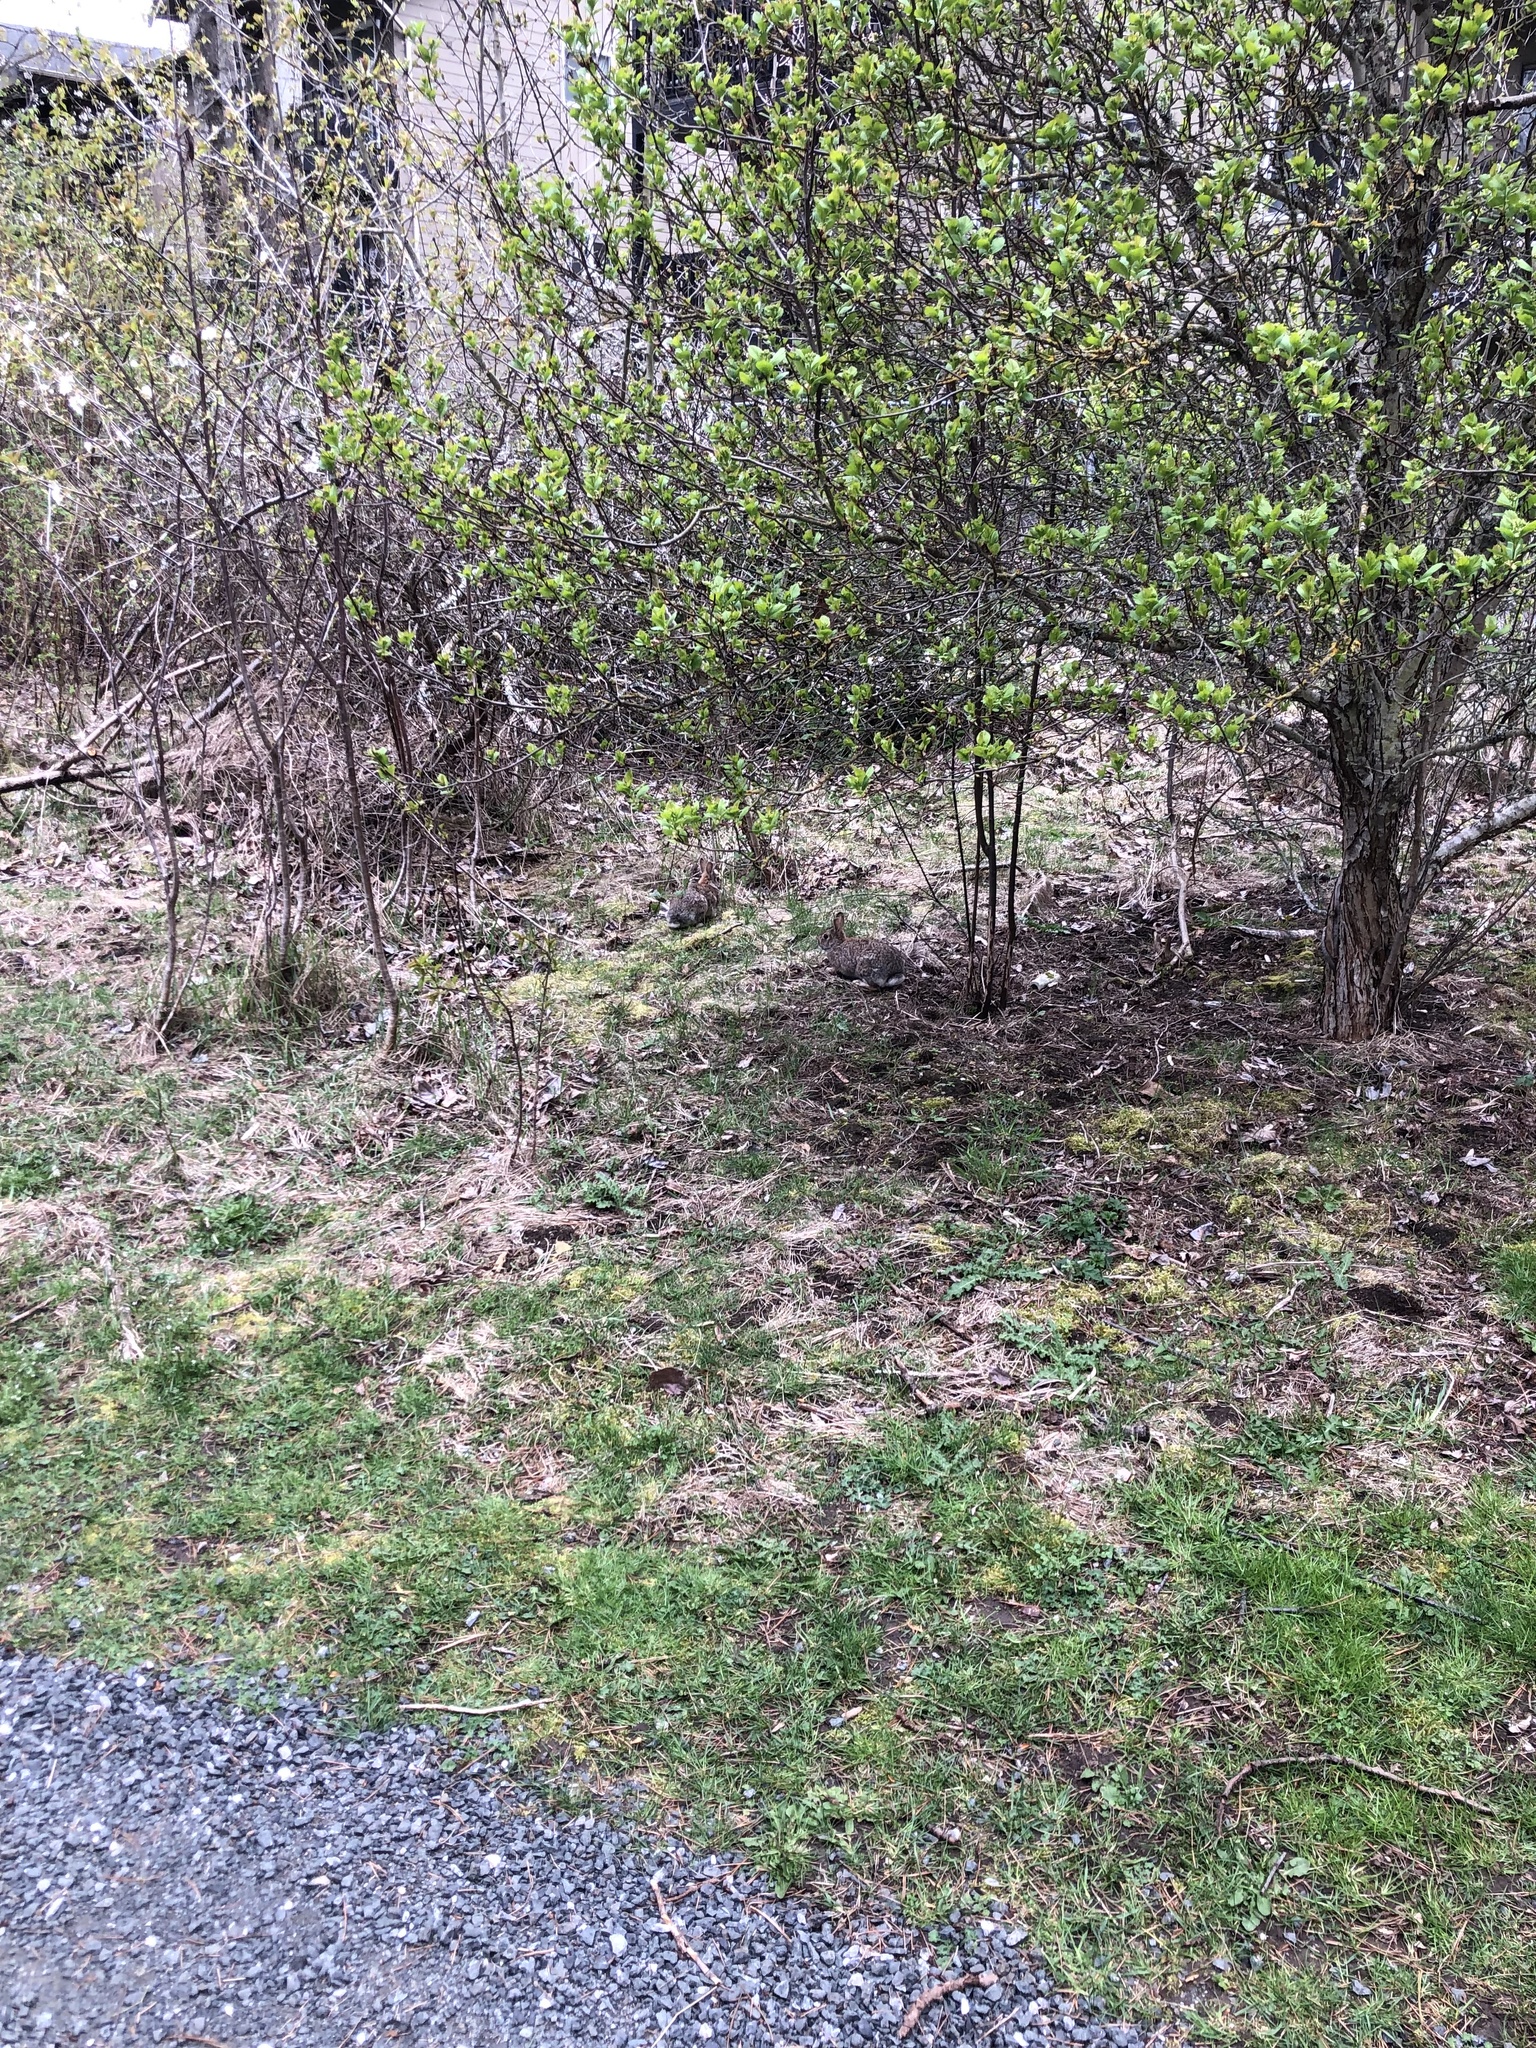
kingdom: Animalia
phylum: Chordata
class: Mammalia
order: Lagomorpha
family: Leporidae
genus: Sylvilagus
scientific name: Sylvilagus floridanus
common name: Eastern cottontail
